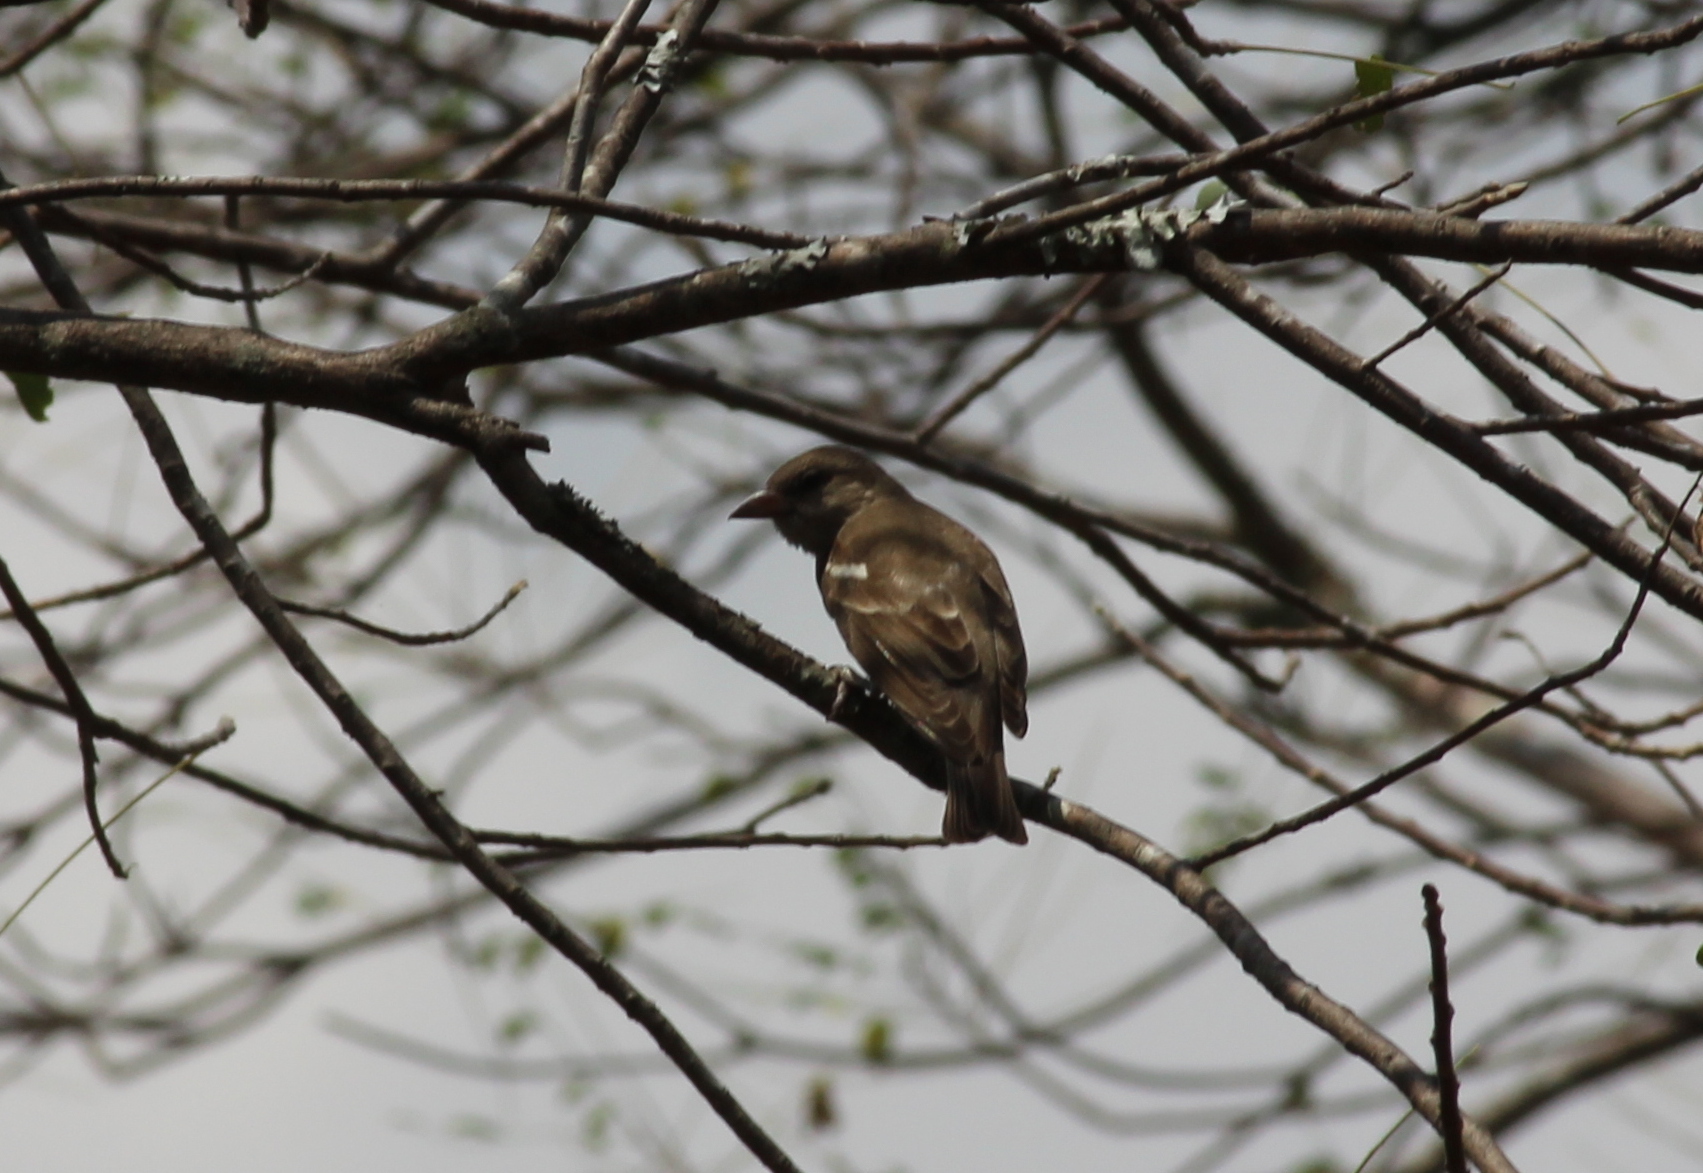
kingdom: Animalia
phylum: Chordata
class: Aves
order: Passeriformes
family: Passeridae
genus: Gymnoris
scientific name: Gymnoris xanthocollis
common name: Yellow-throated sparrow
